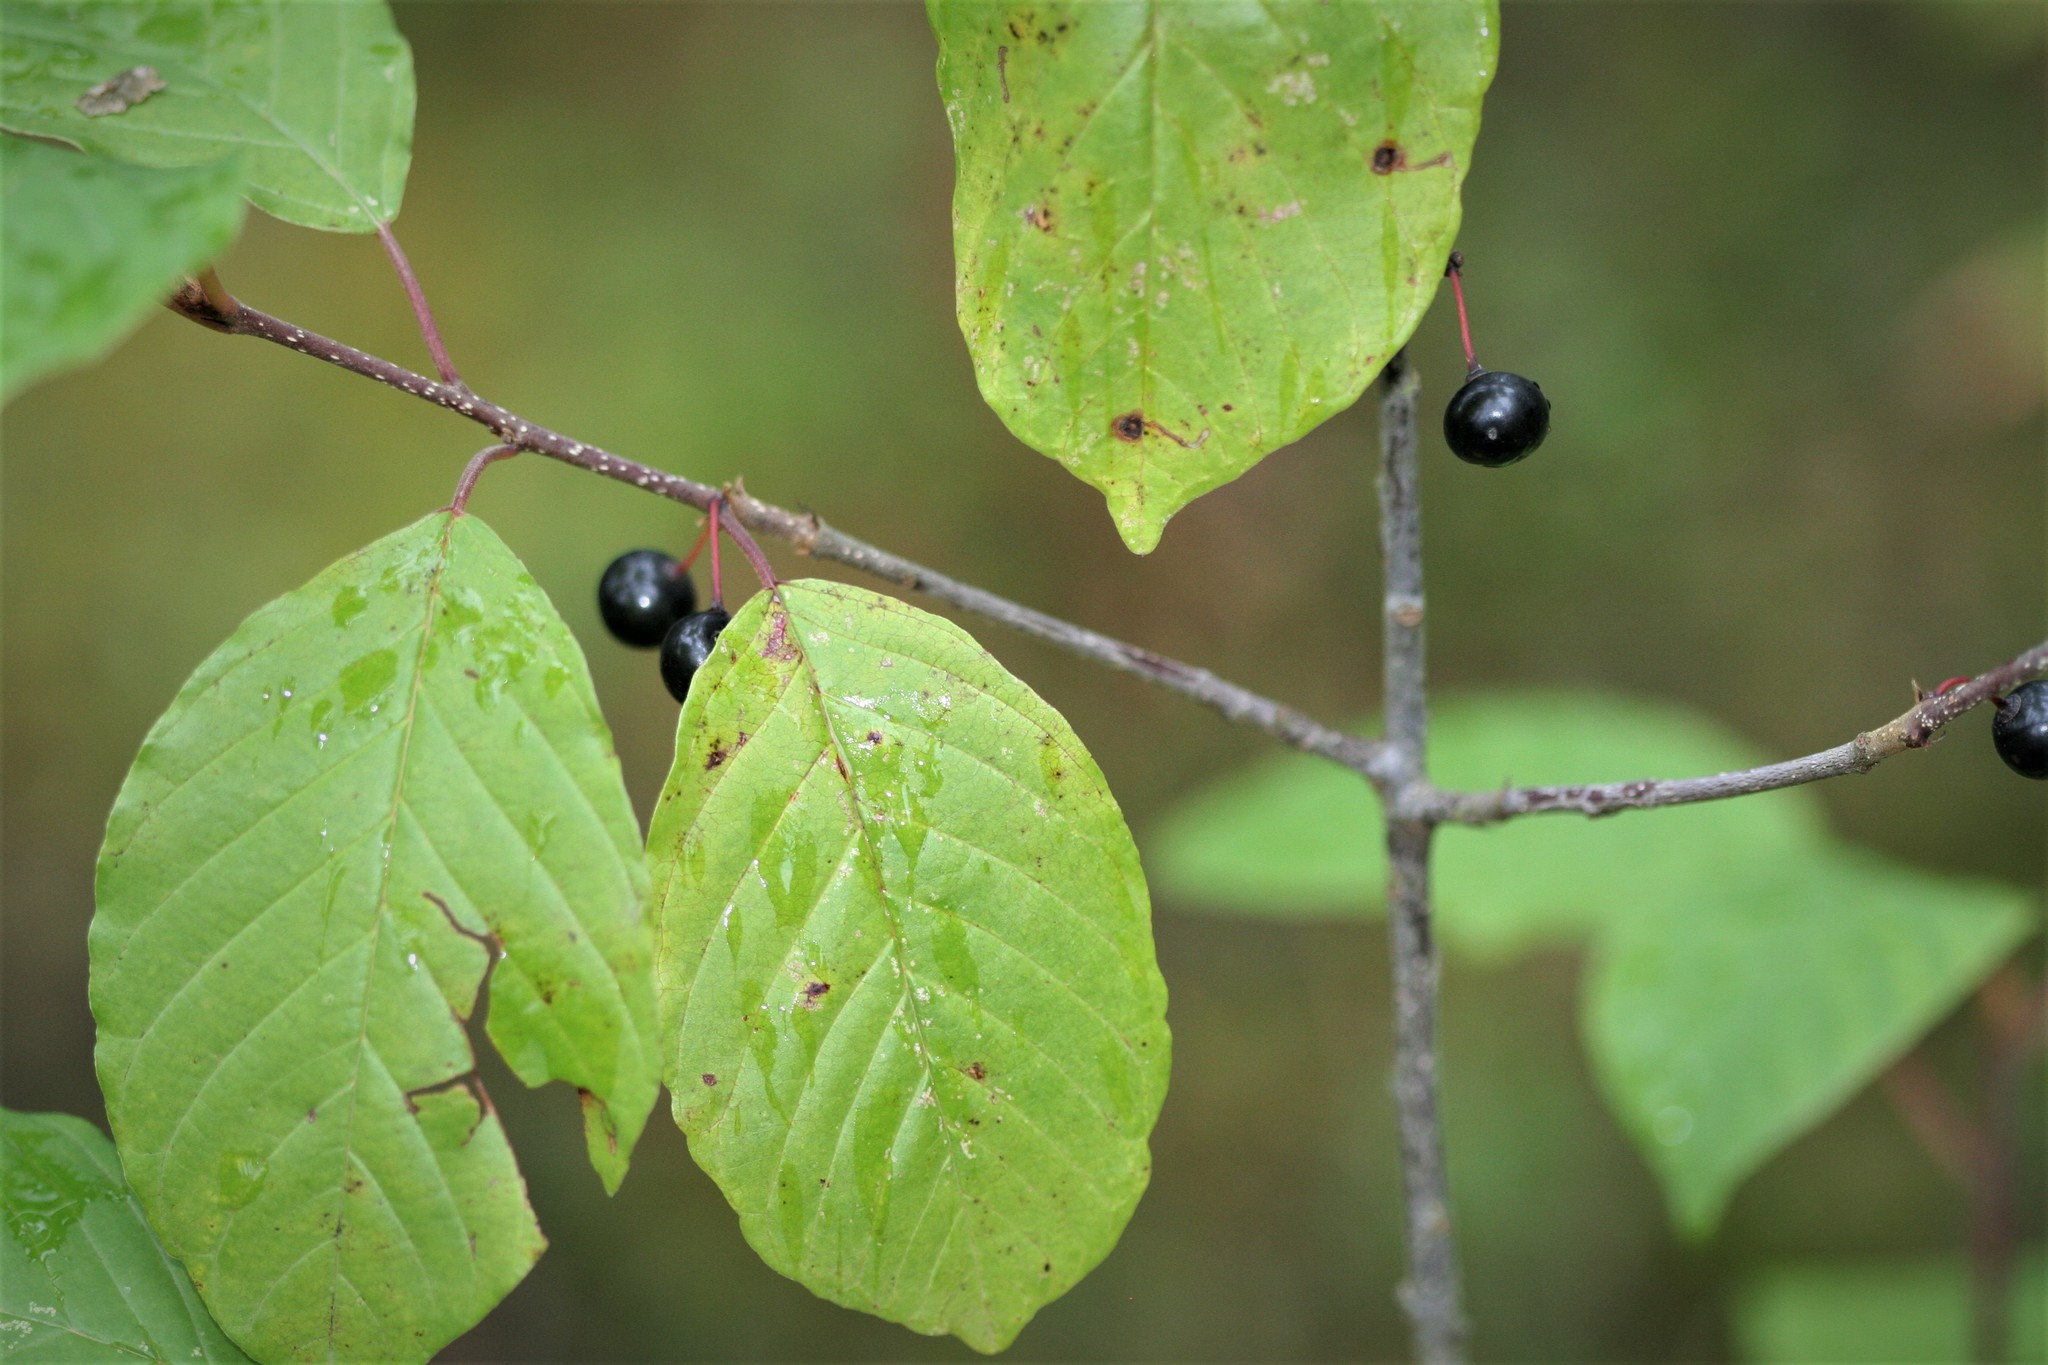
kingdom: Plantae
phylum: Tracheophyta
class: Magnoliopsida
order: Rosales
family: Rhamnaceae
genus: Frangula
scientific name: Frangula alnus
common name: Alder buckthorn
